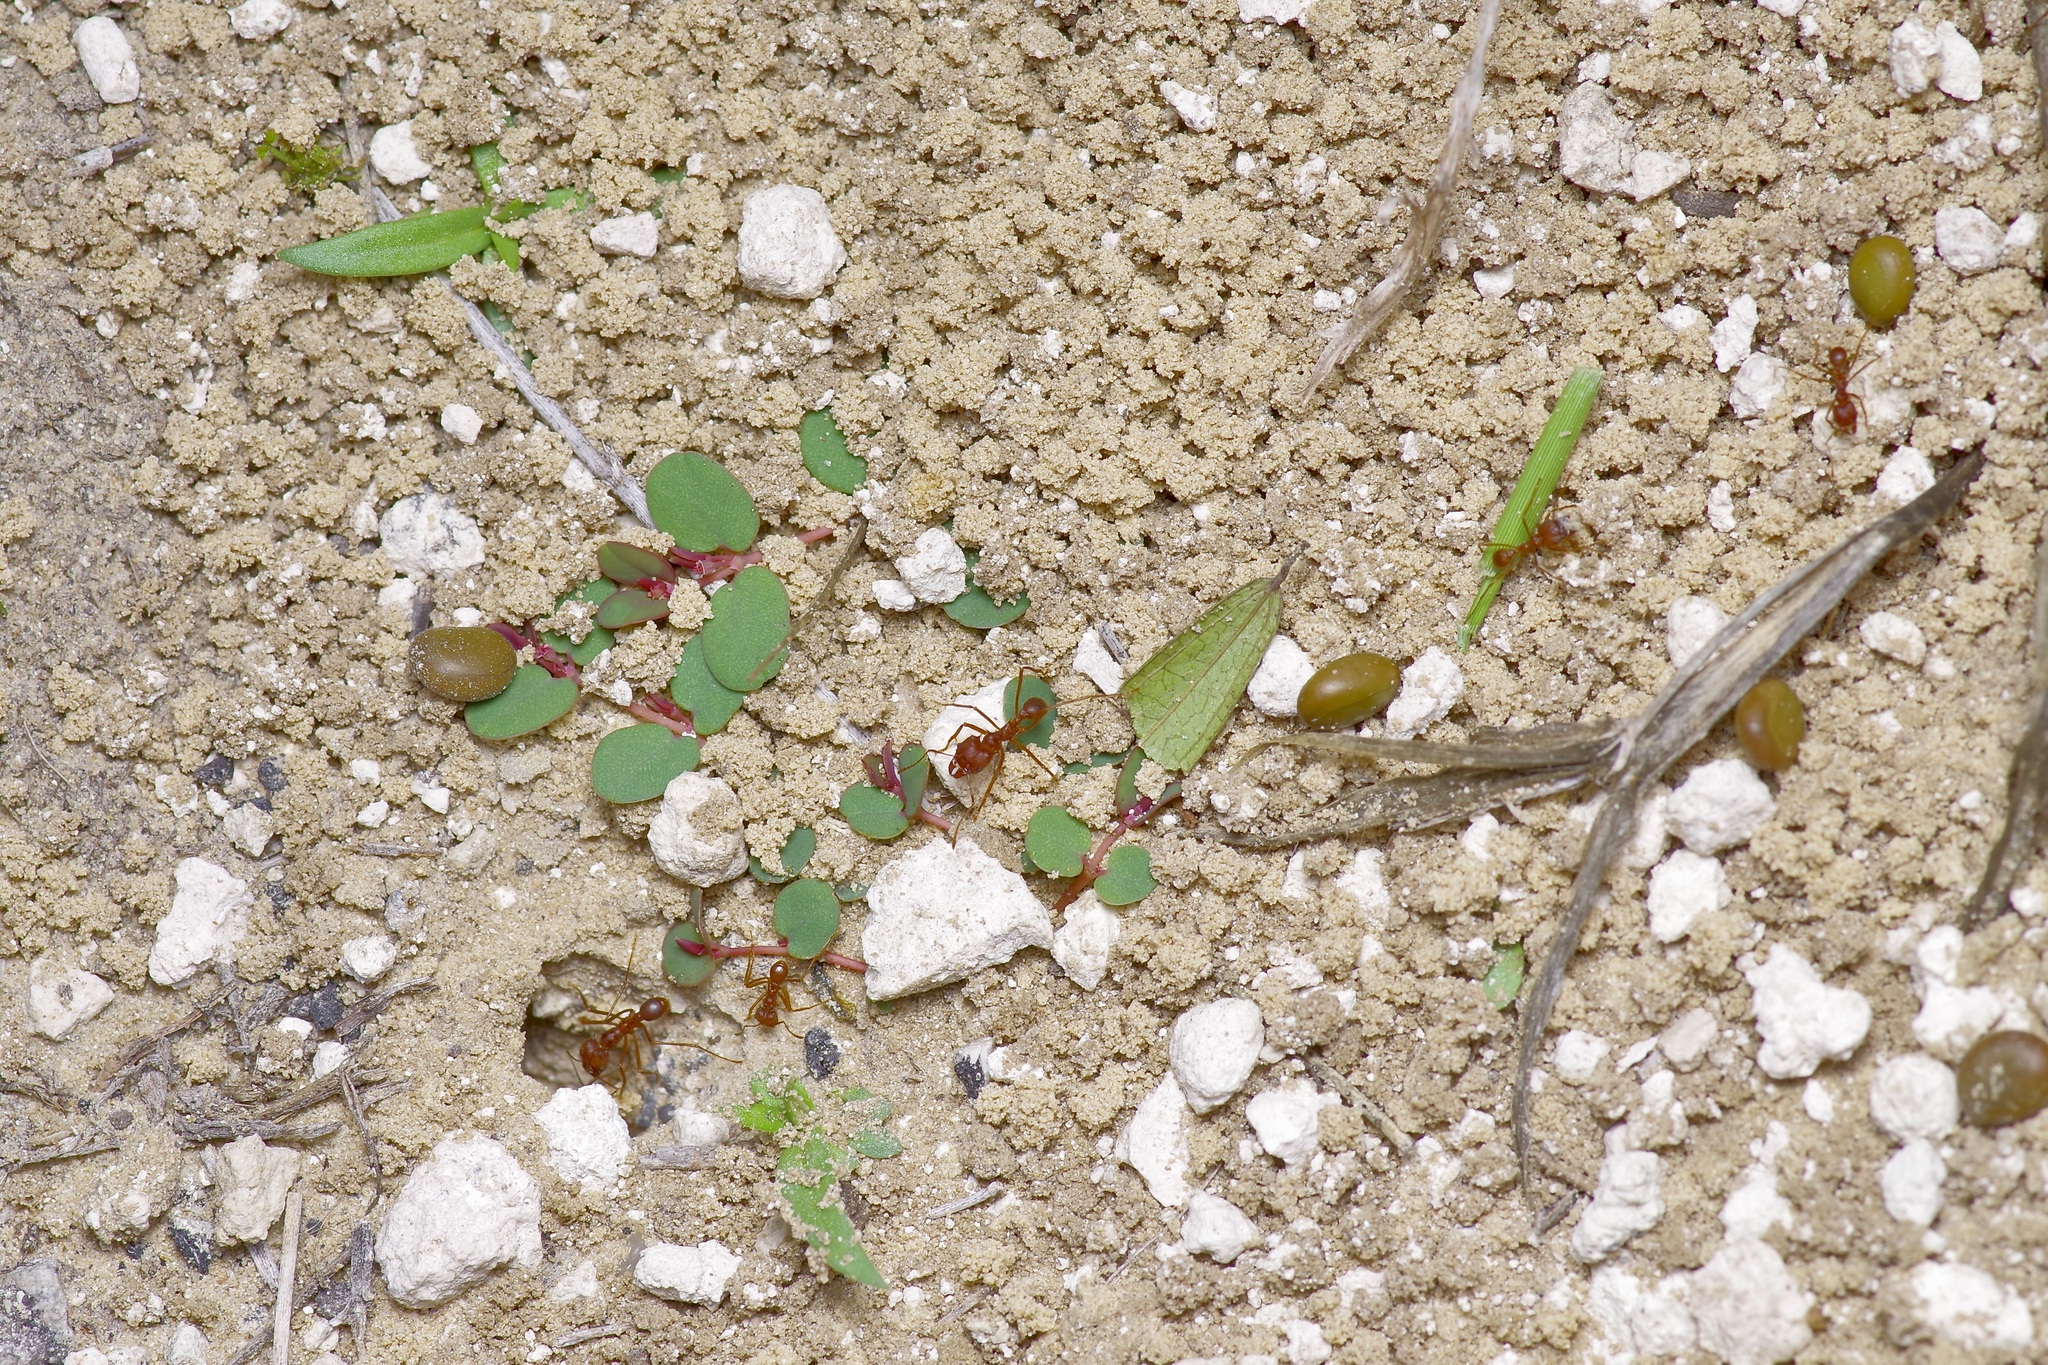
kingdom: Animalia
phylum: Arthropoda
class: Insecta
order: Hymenoptera
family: Formicidae
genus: Atta
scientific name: Atta texana
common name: Texas leafcutting ant
